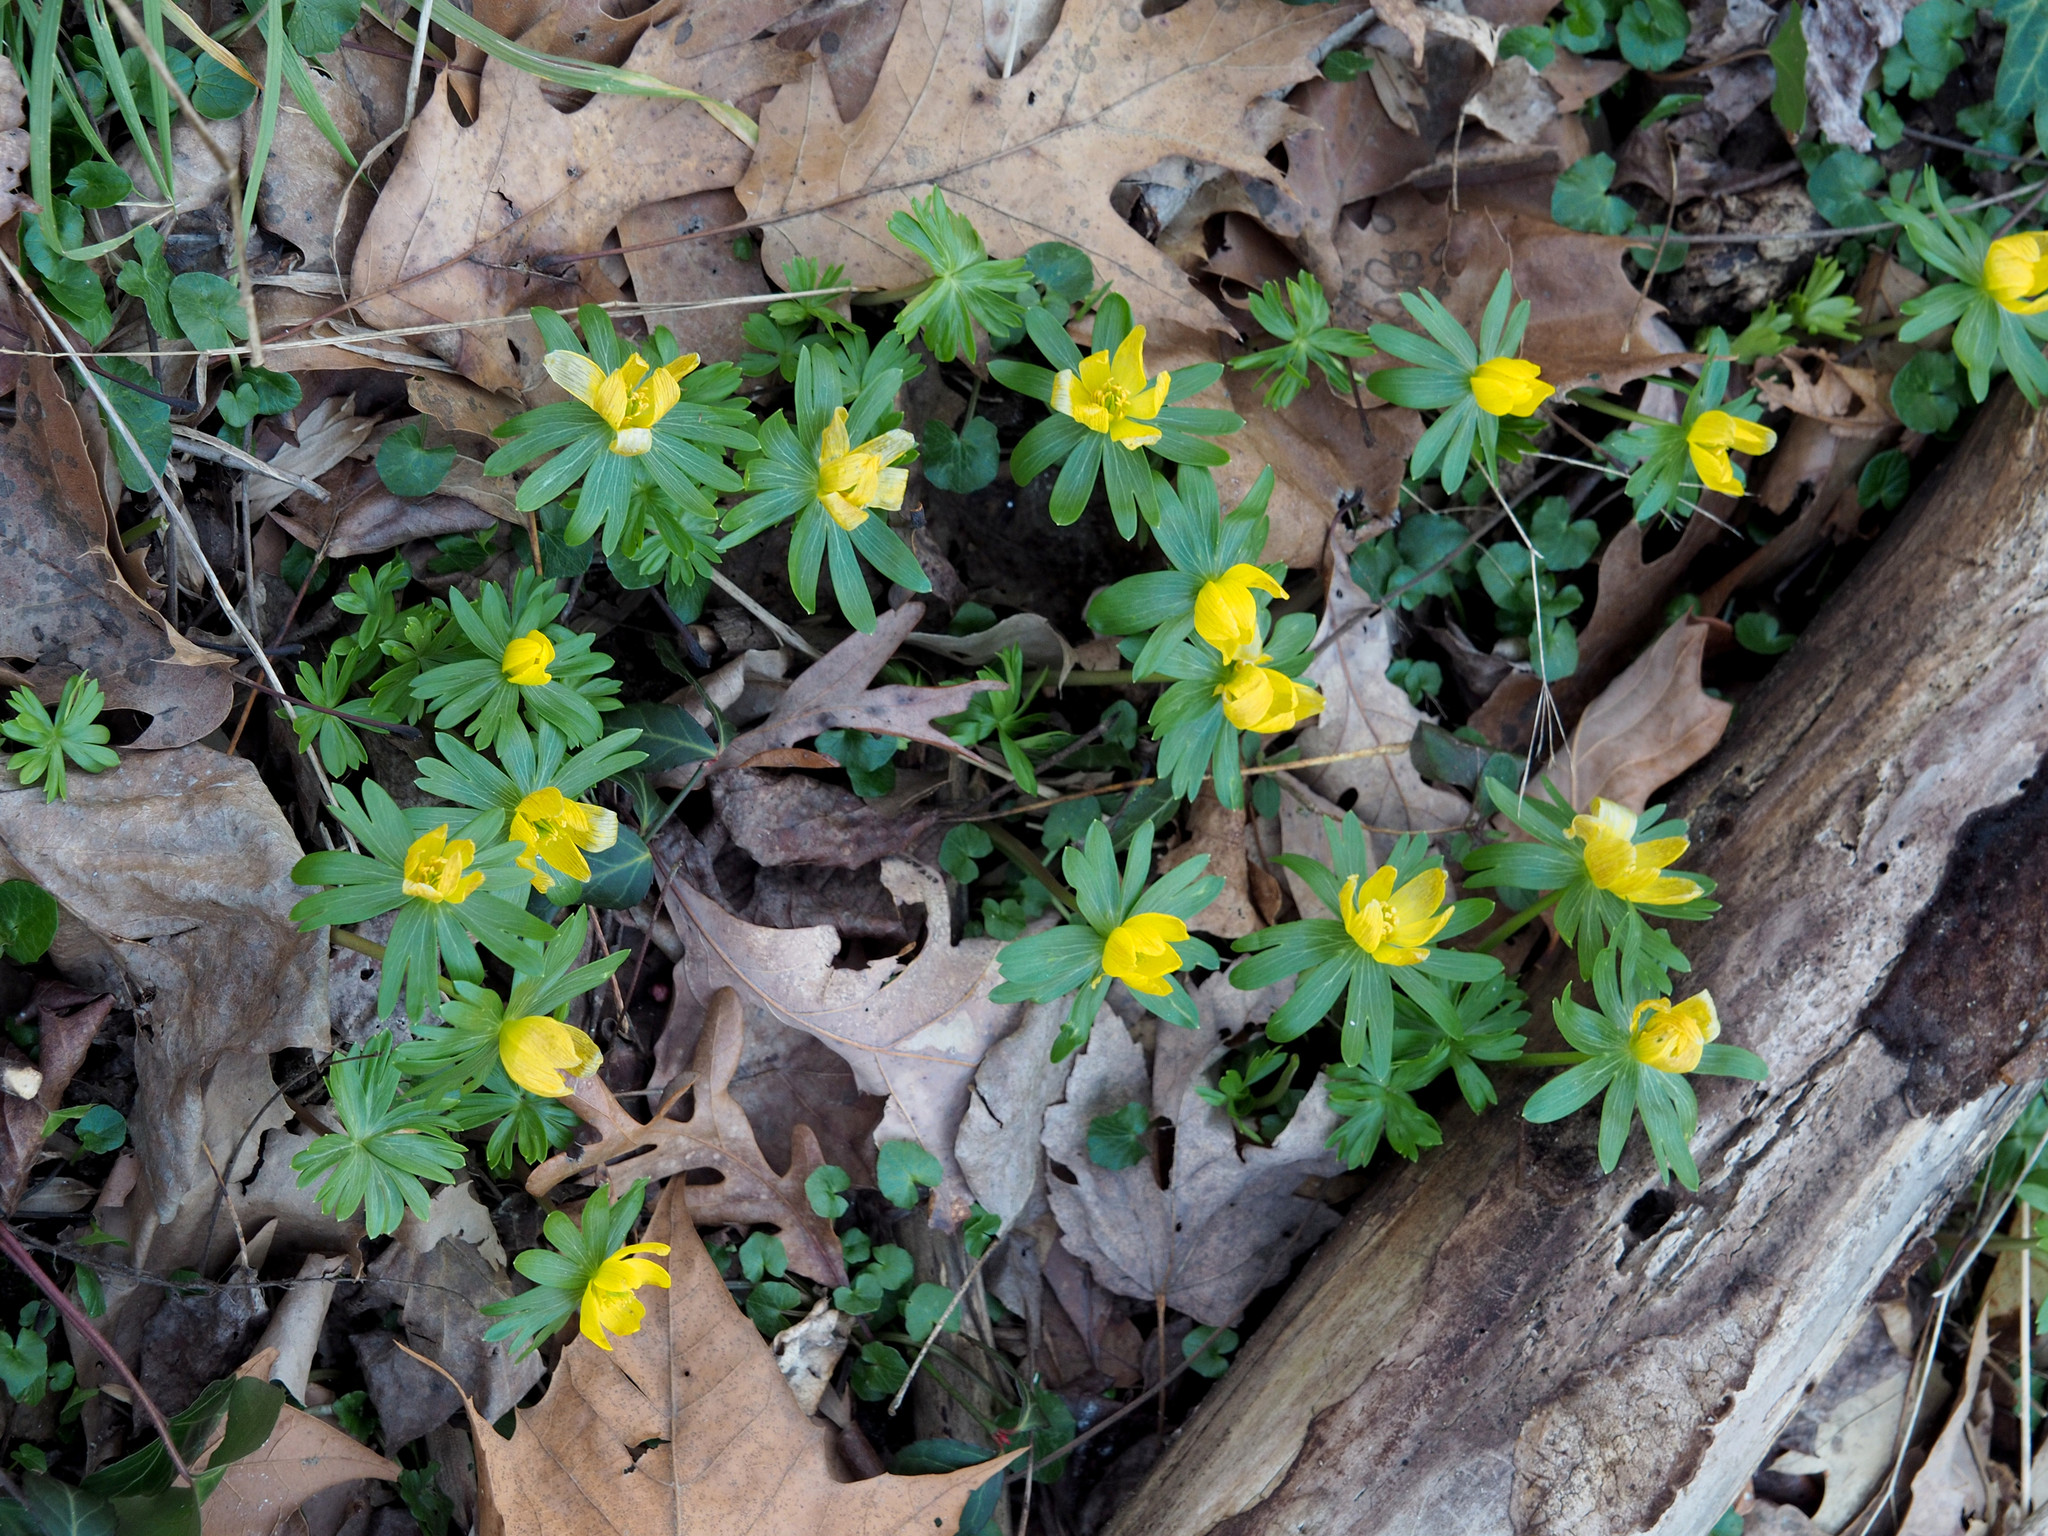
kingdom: Plantae
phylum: Tracheophyta
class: Magnoliopsida
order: Ranunculales
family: Ranunculaceae
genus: Eranthis
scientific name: Eranthis hyemalis
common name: Winter aconite
